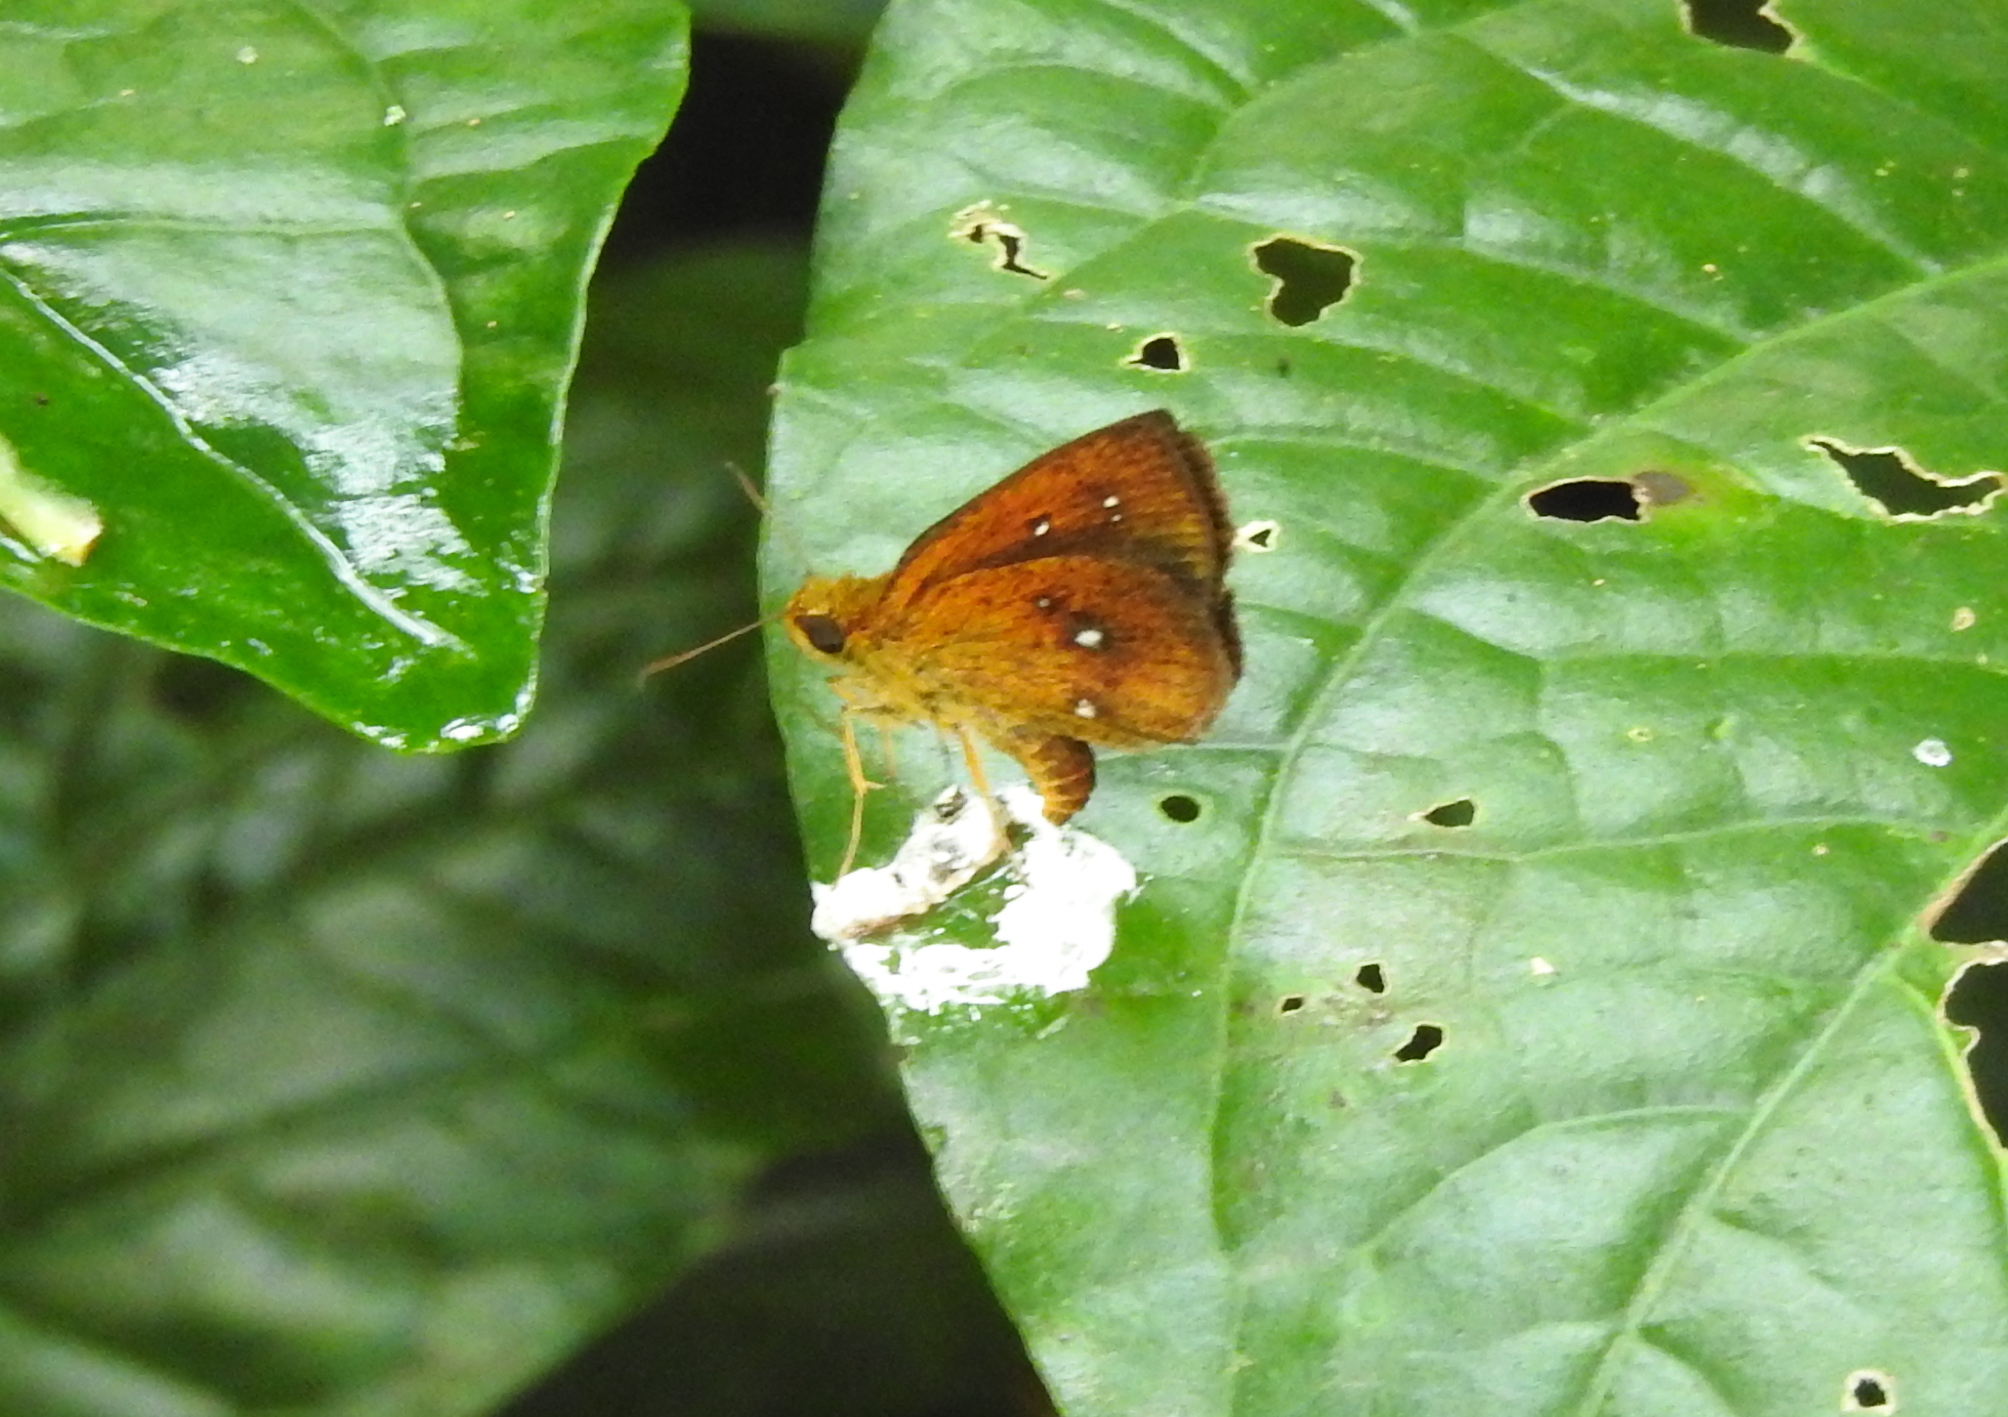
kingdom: Animalia
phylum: Arthropoda
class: Insecta
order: Lepidoptera
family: Hesperiidae
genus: Iambrix
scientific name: Iambrix salsala
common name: Chestnut bob
